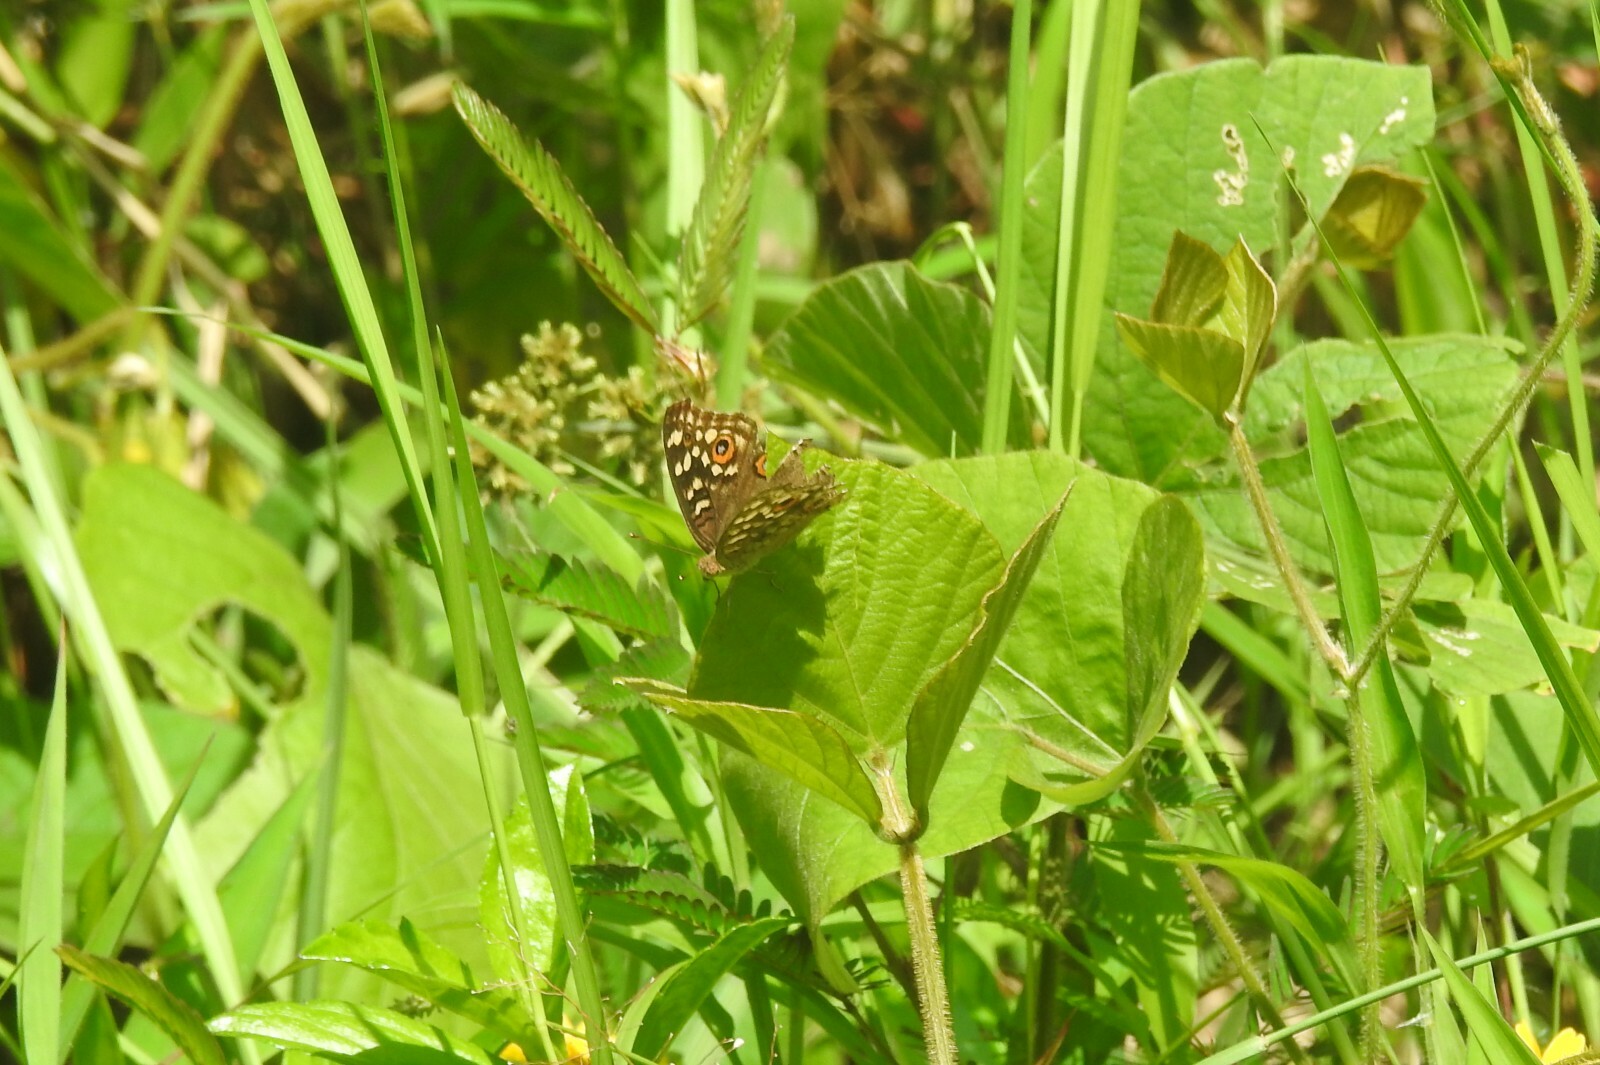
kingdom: Animalia
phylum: Arthropoda
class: Insecta
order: Lepidoptera
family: Nymphalidae
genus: Junonia
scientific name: Junonia lemonias
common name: Lemon pansy
